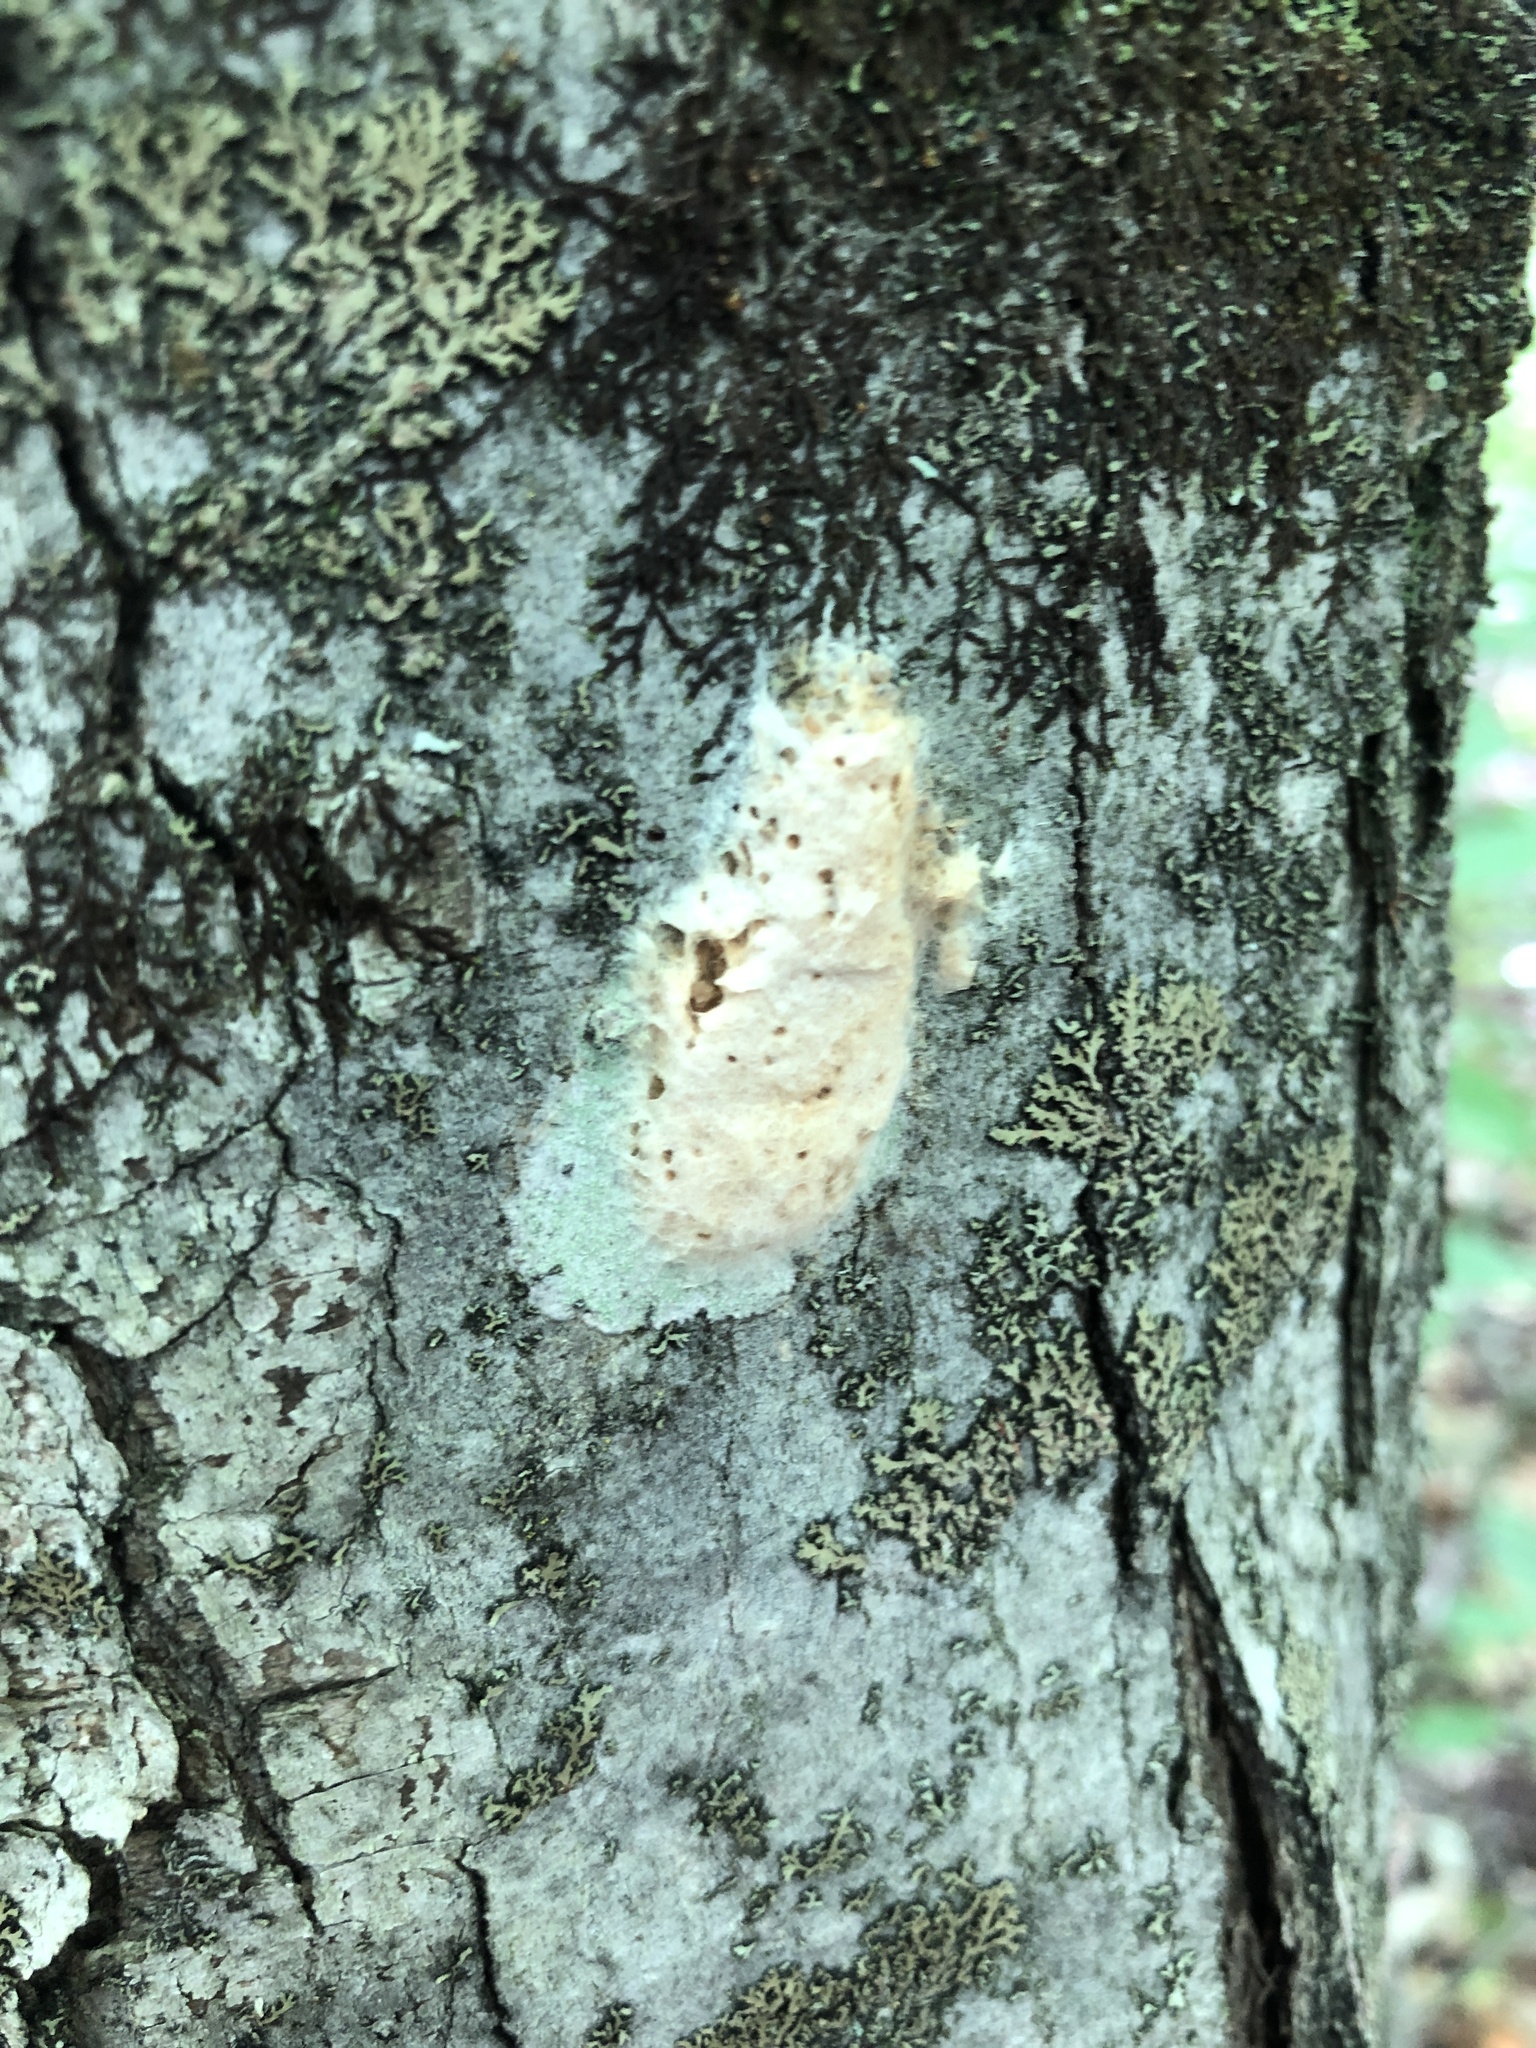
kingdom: Animalia
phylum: Arthropoda
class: Insecta
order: Lepidoptera
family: Erebidae
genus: Lymantria
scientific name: Lymantria dispar
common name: Gypsy moth
